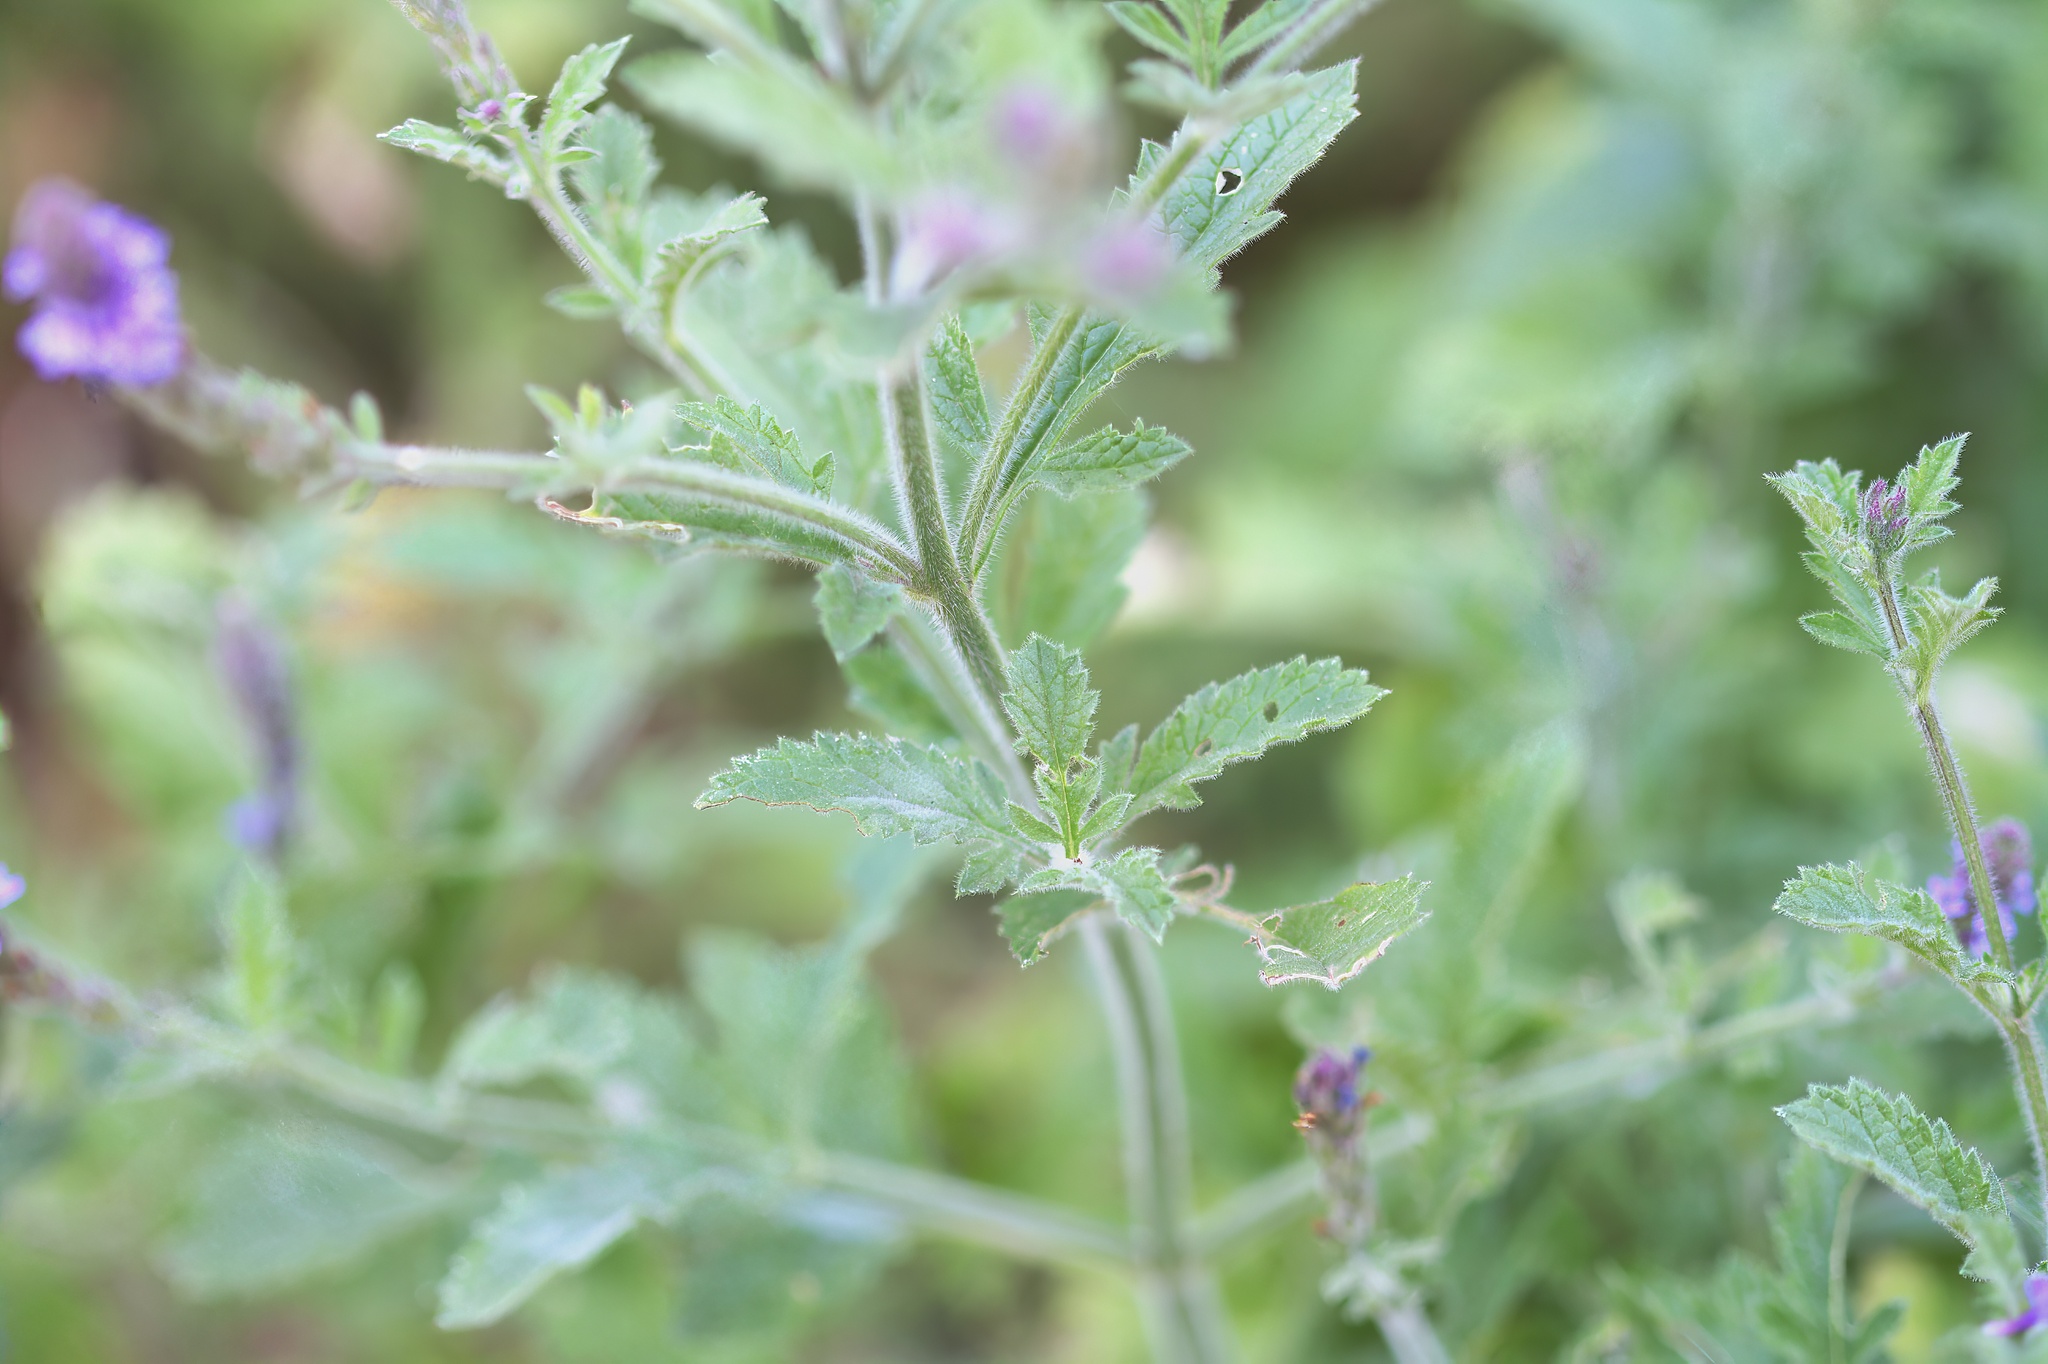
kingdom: Plantae
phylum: Tracheophyta
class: Magnoliopsida
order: Lamiales
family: Verbenaceae
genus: Verbena
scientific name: Verbena lasiostachys
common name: Vervain
